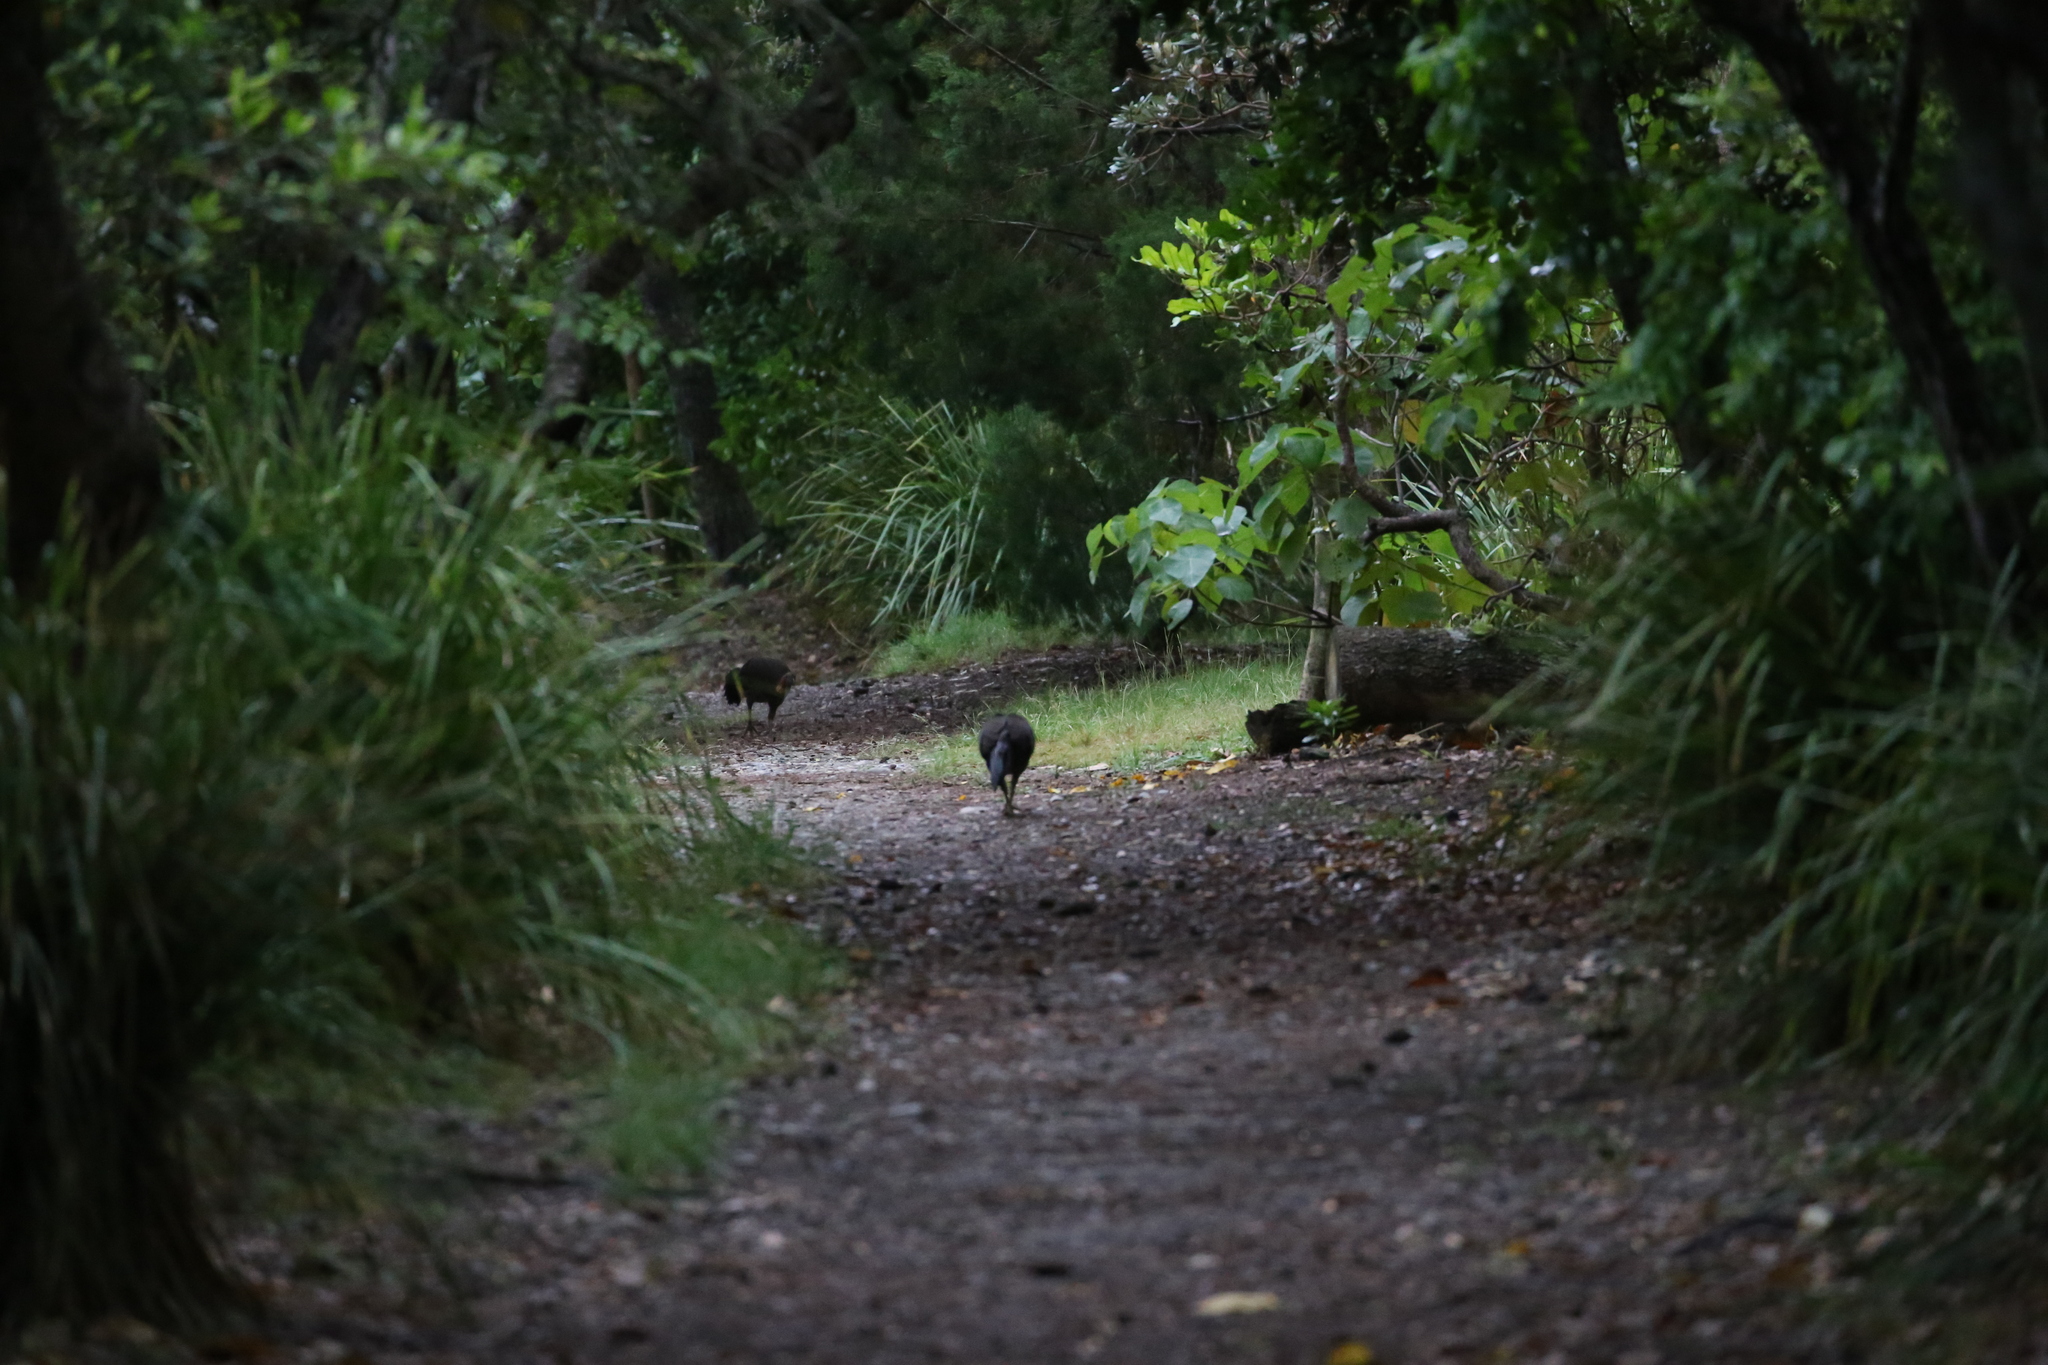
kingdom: Animalia
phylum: Chordata
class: Aves
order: Galliformes
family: Megapodiidae
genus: Alectura
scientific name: Alectura lathami
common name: Australian brushturkey
